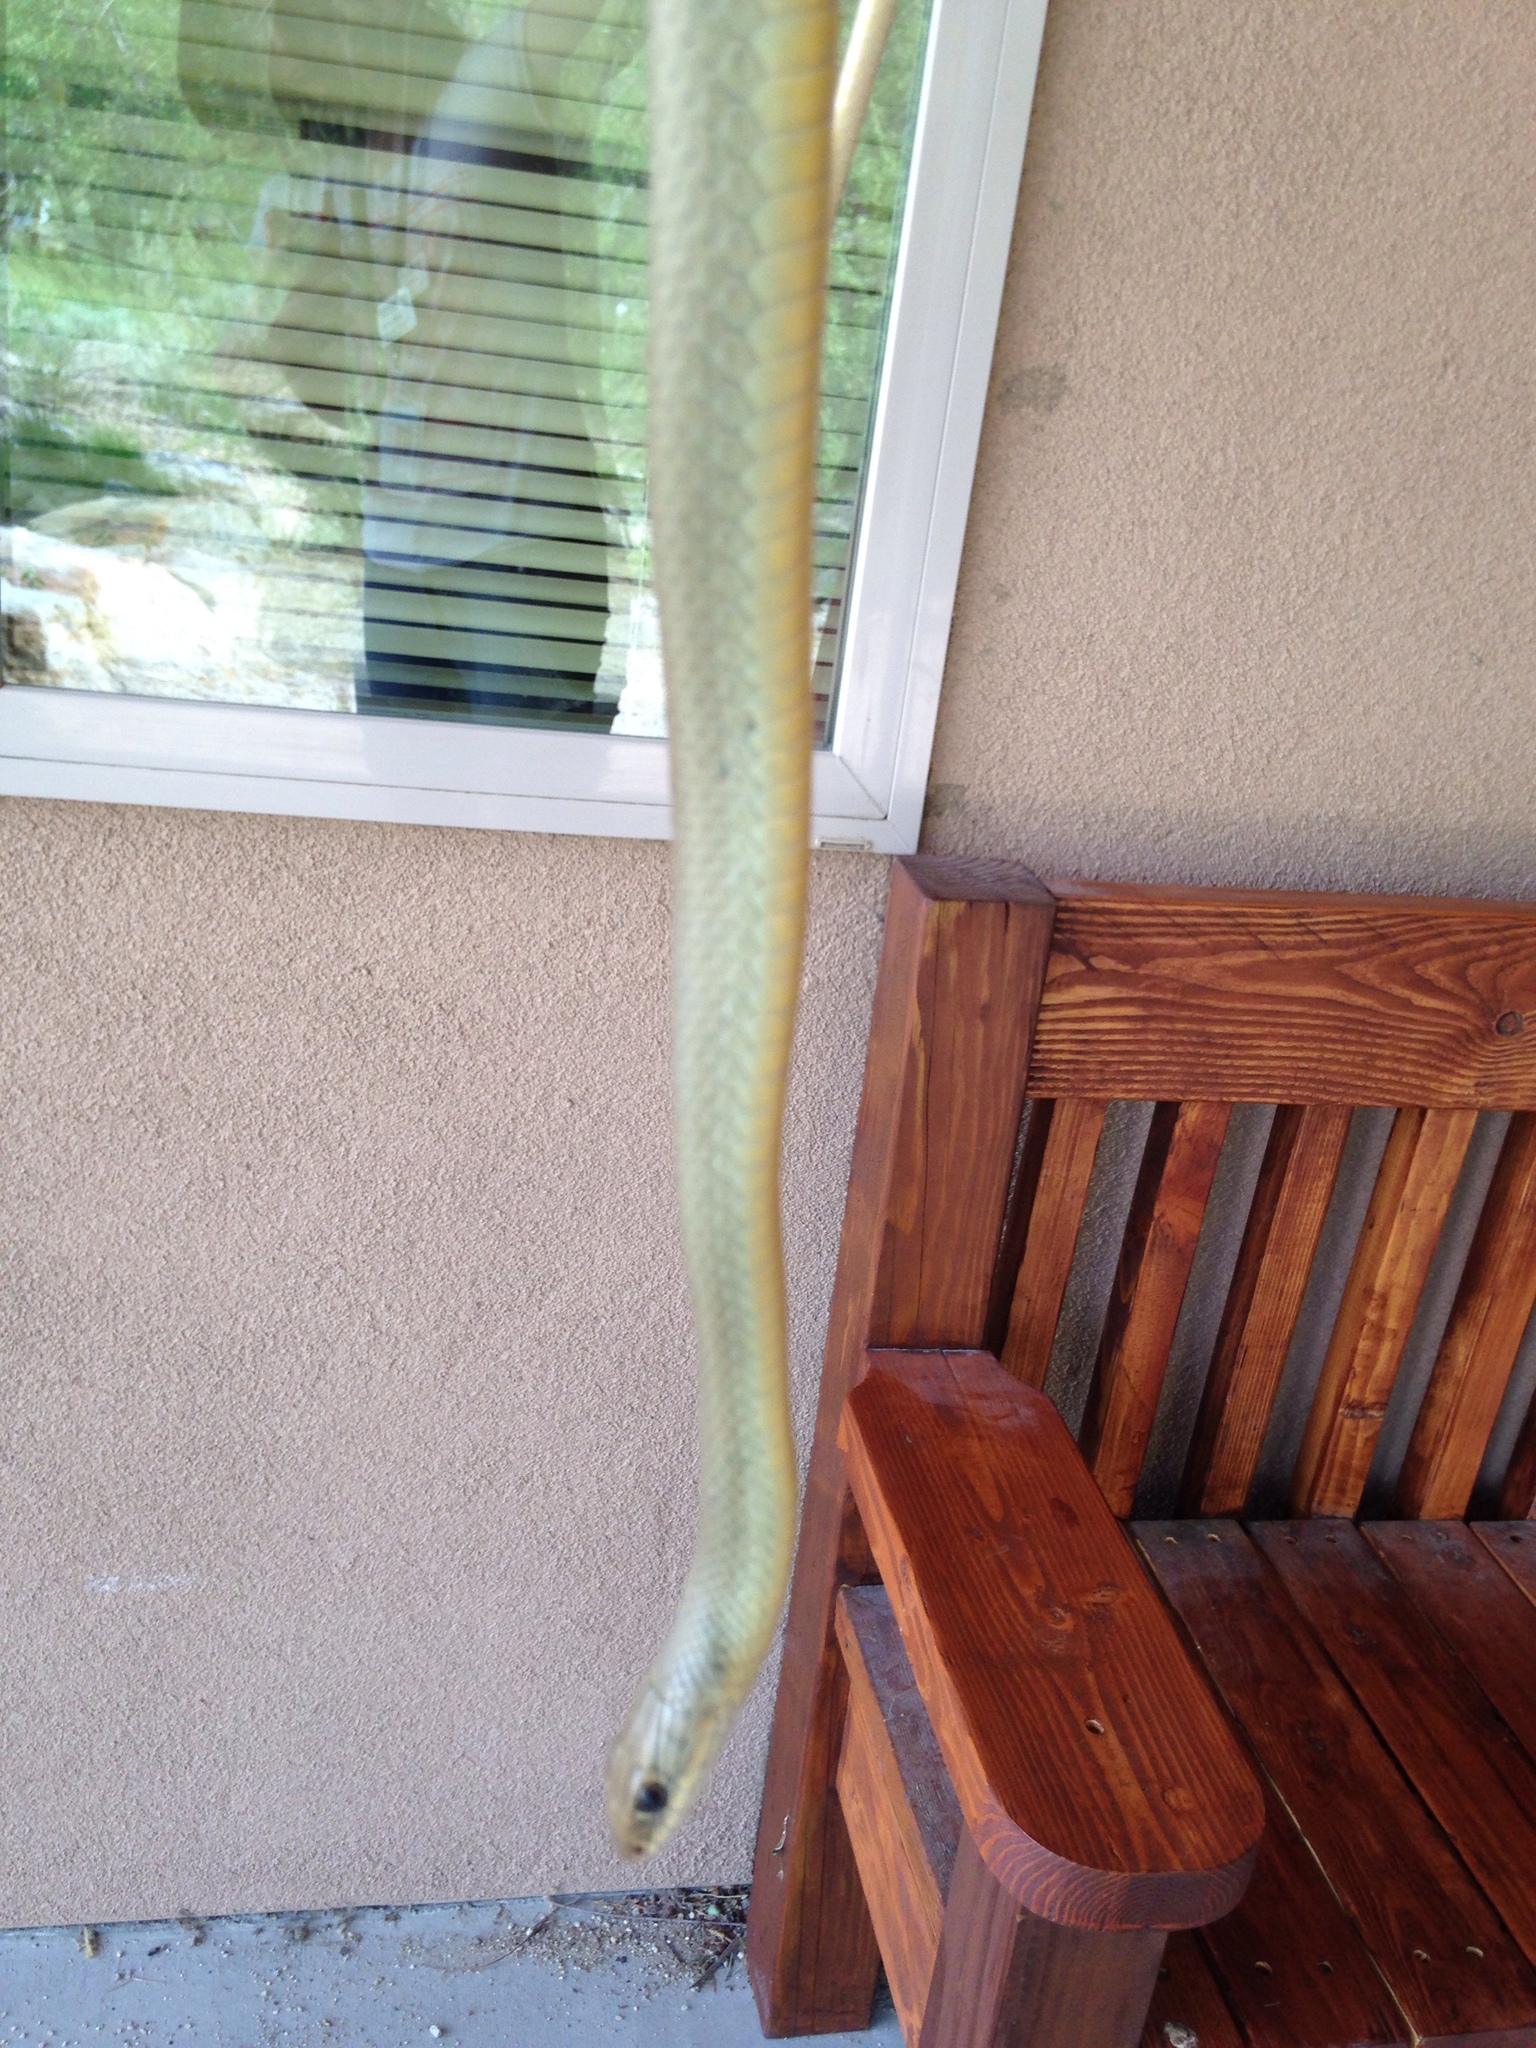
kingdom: Animalia
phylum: Chordata
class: Squamata
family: Colubridae
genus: Coluber
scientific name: Coluber constrictor
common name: Eastern racer
